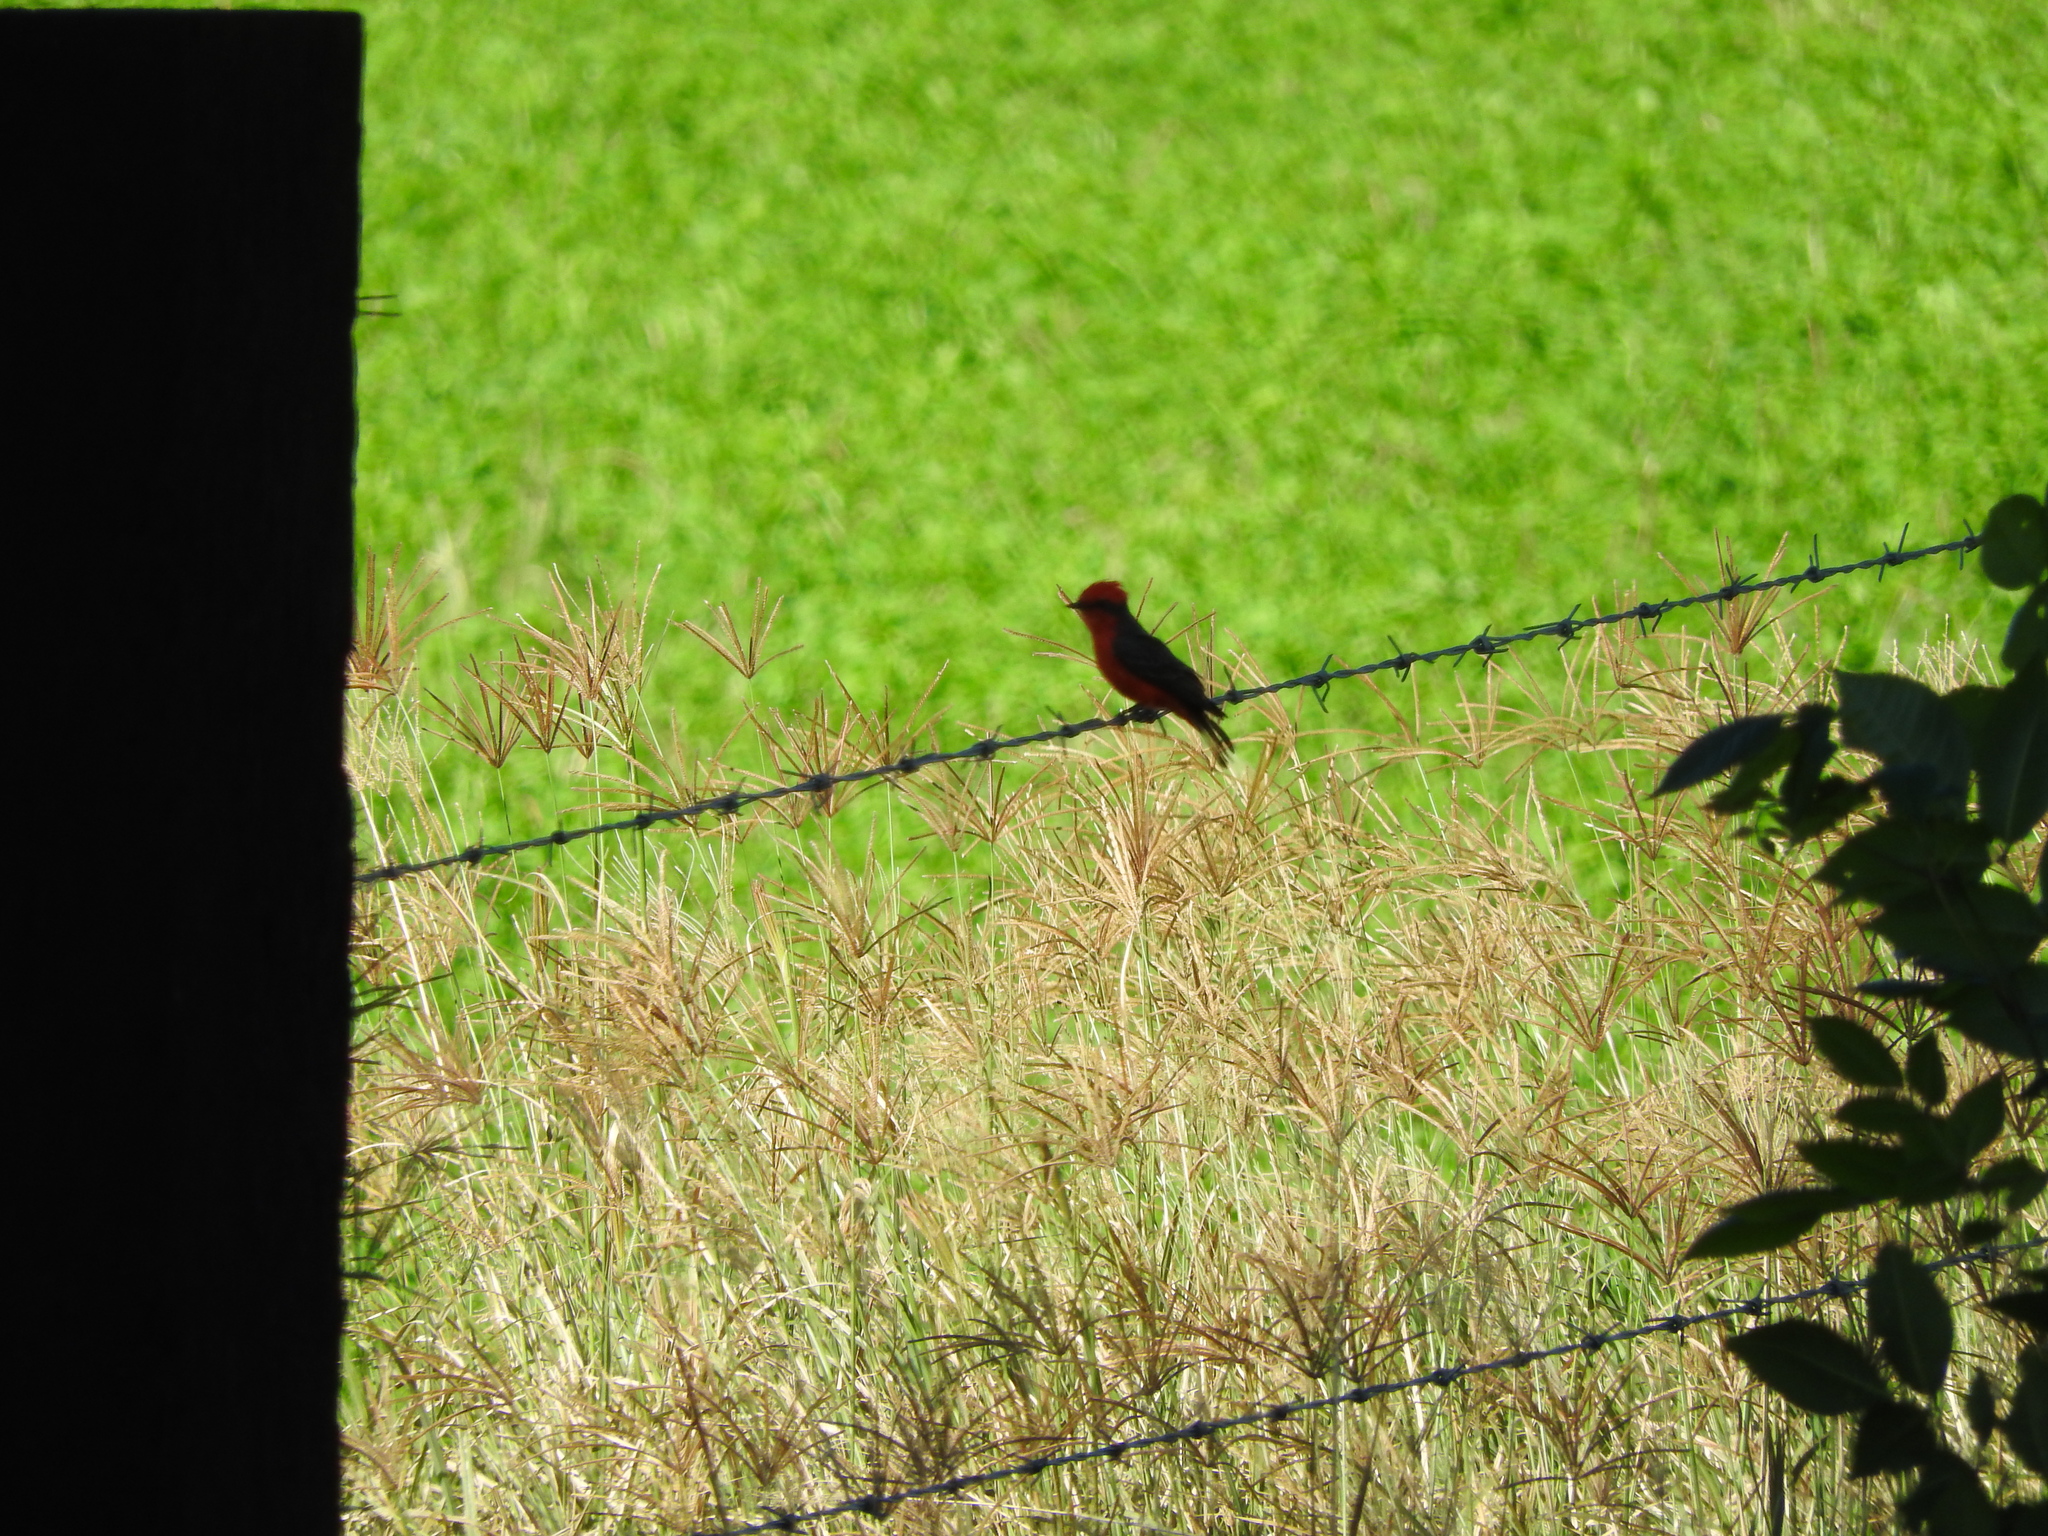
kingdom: Animalia
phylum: Chordata
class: Aves
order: Passeriformes
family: Tyrannidae
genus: Pyrocephalus
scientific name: Pyrocephalus rubinus
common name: Vermilion flycatcher
